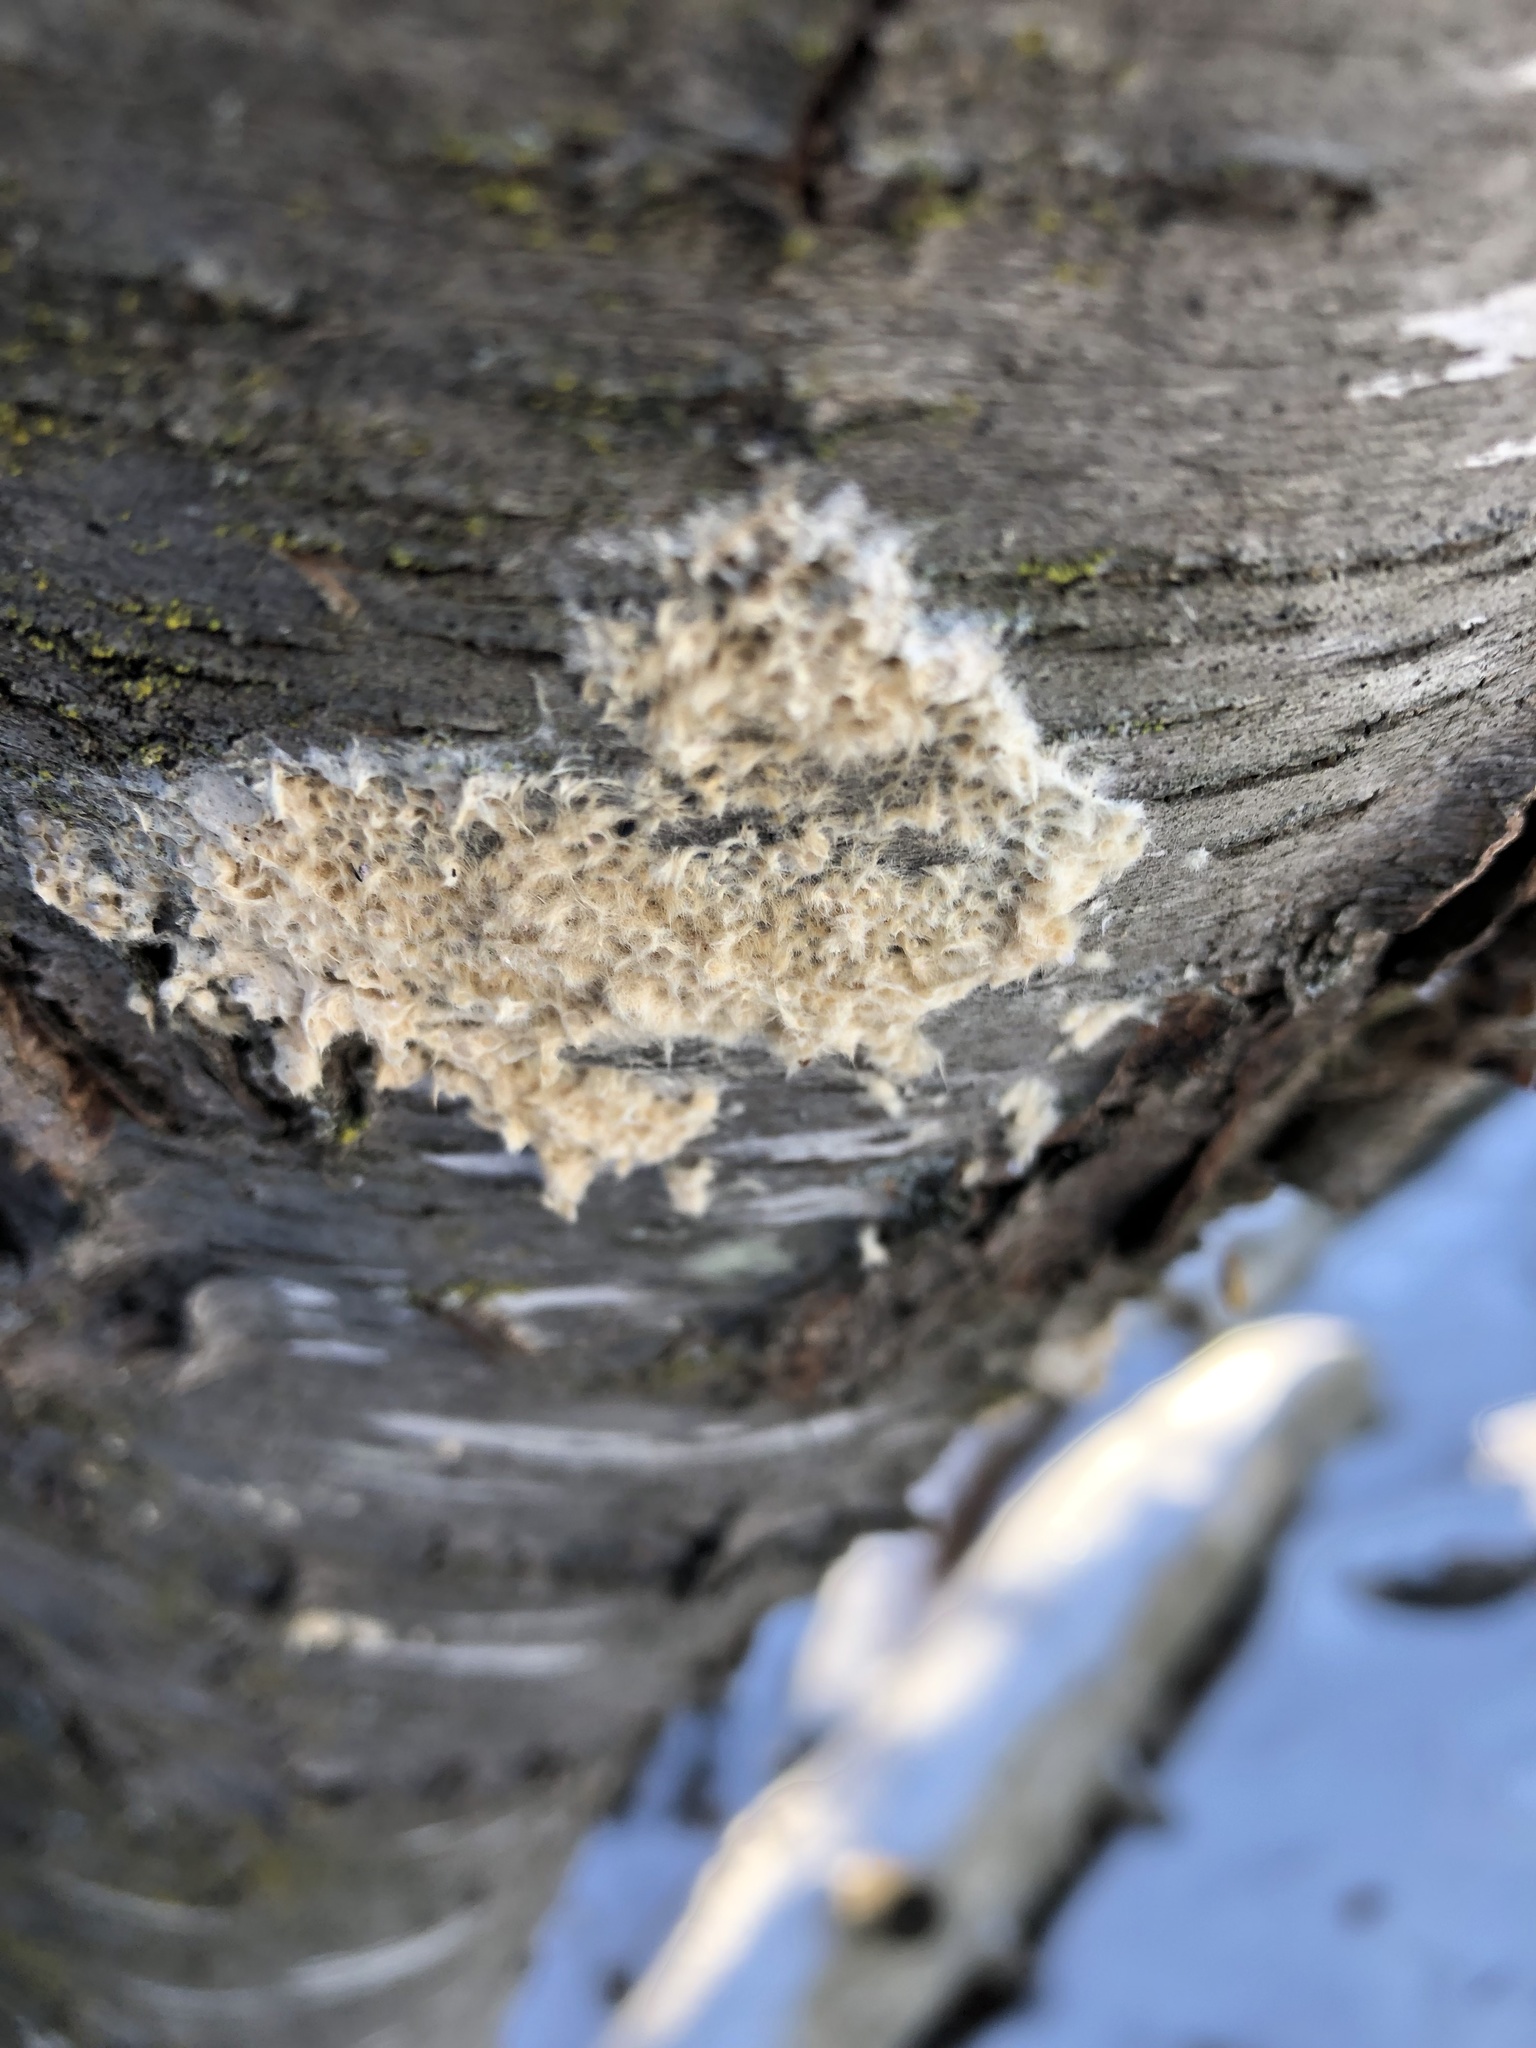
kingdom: Animalia
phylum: Arthropoda
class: Insecta
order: Lepidoptera
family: Erebidae
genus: Lymantria
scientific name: Lymantria dispar
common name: Gypsy moth
